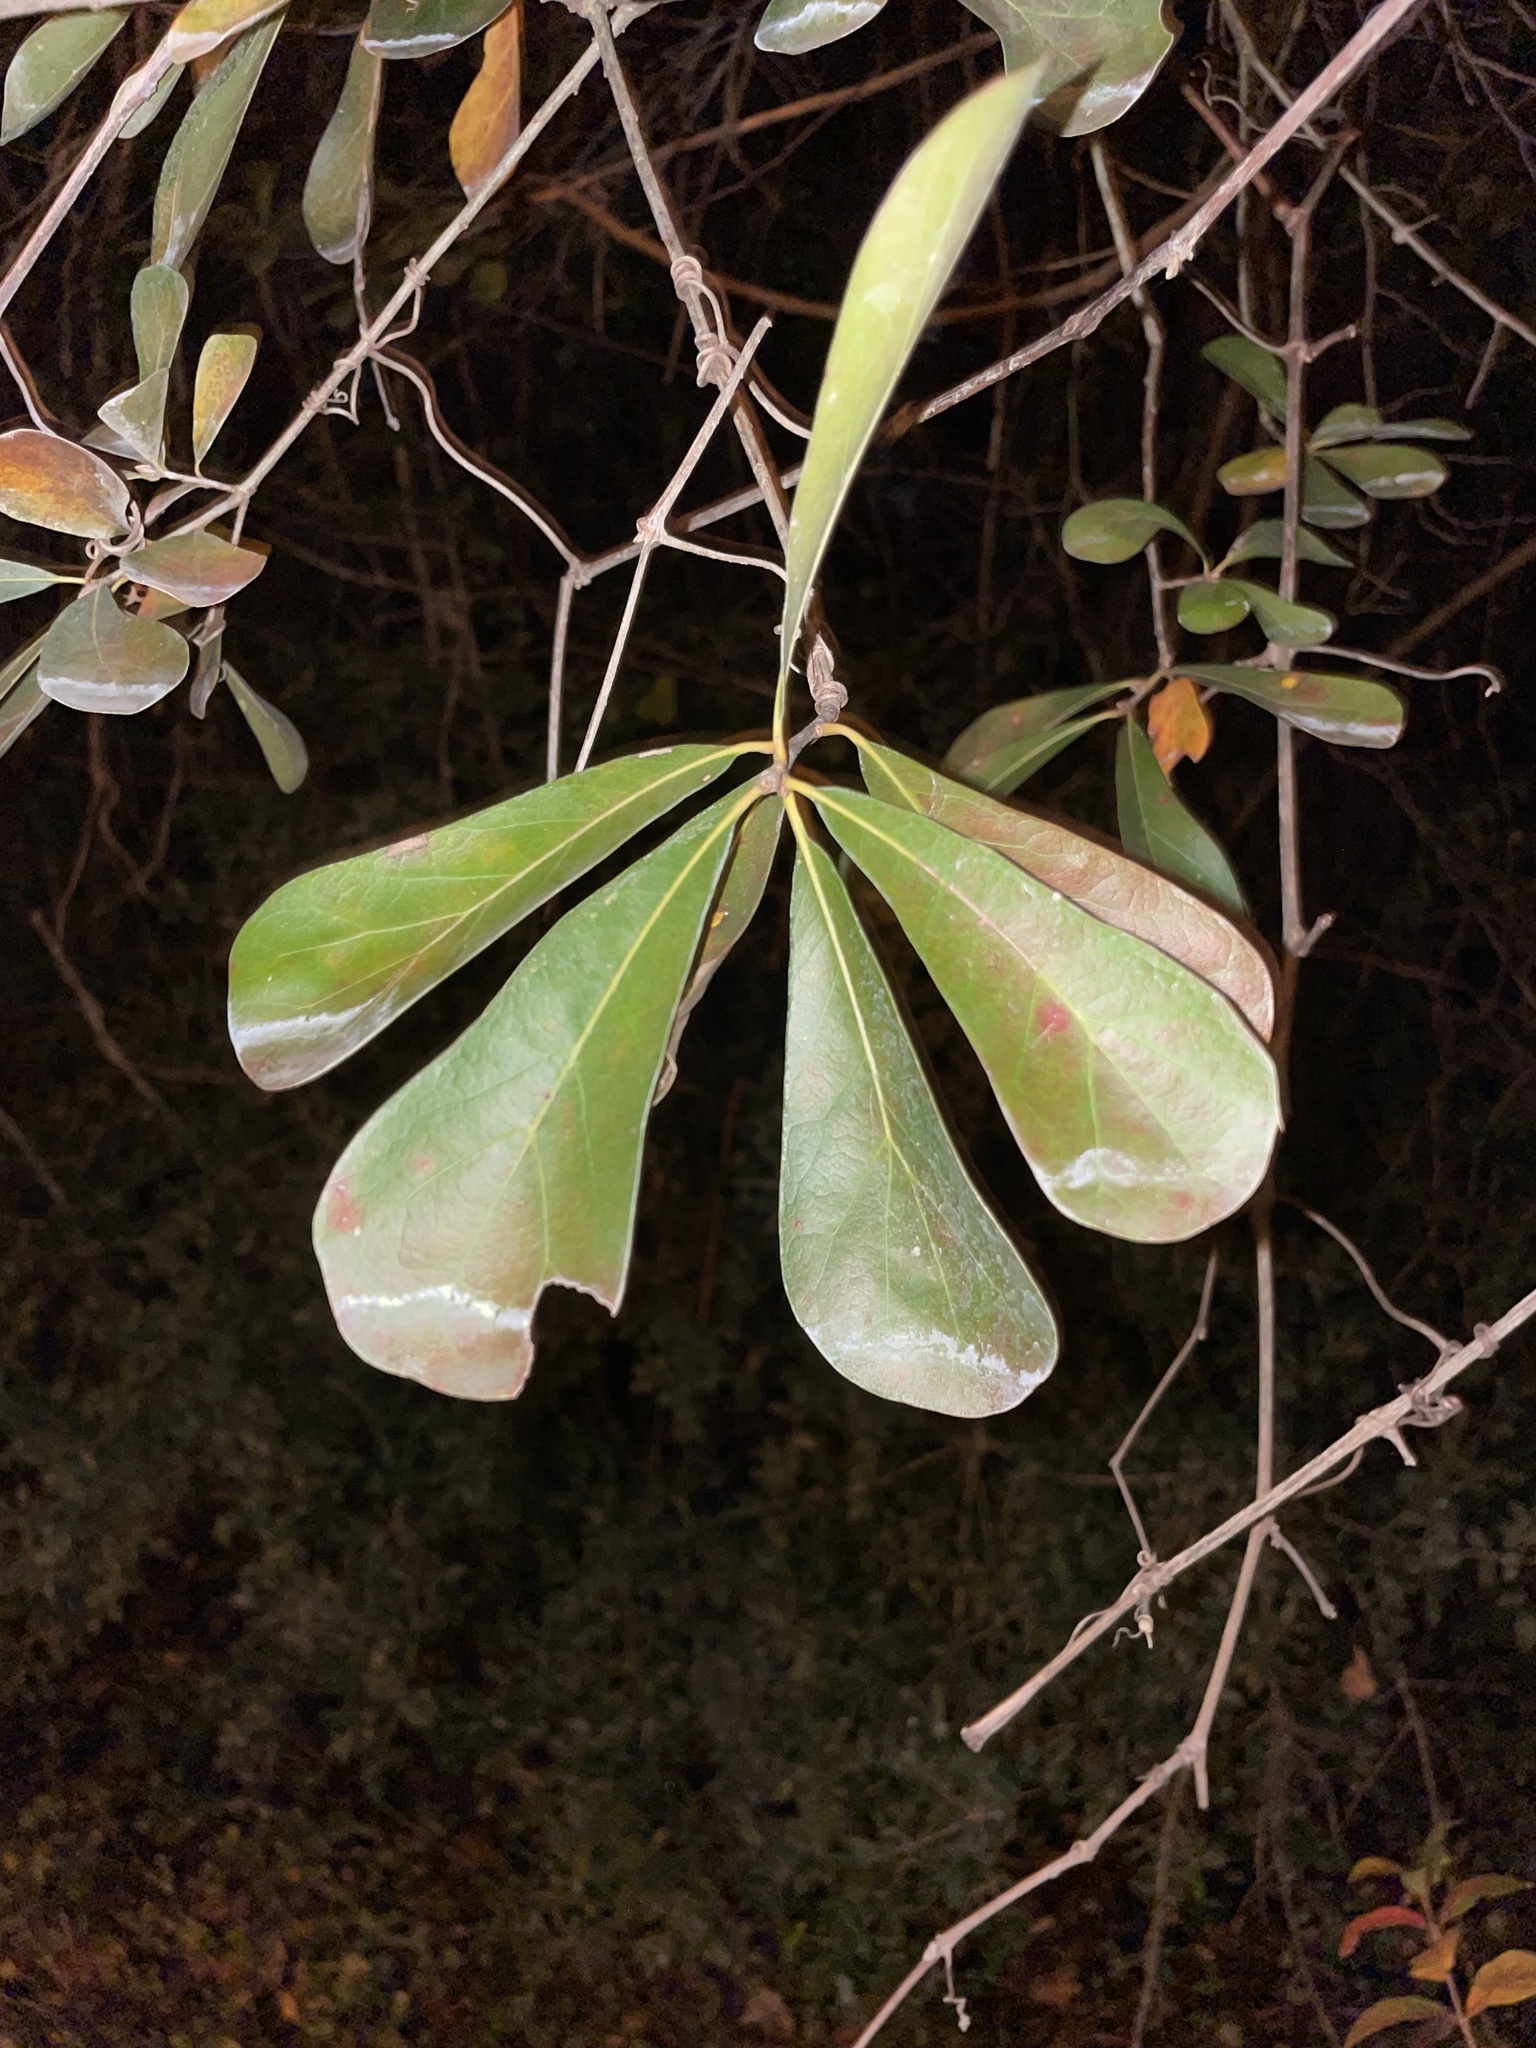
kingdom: Plantae
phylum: Tracheophyta
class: Magnoliopsida
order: Fagales
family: Fagaceae
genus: Quercus
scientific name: Quercus nigra
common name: Water oak
